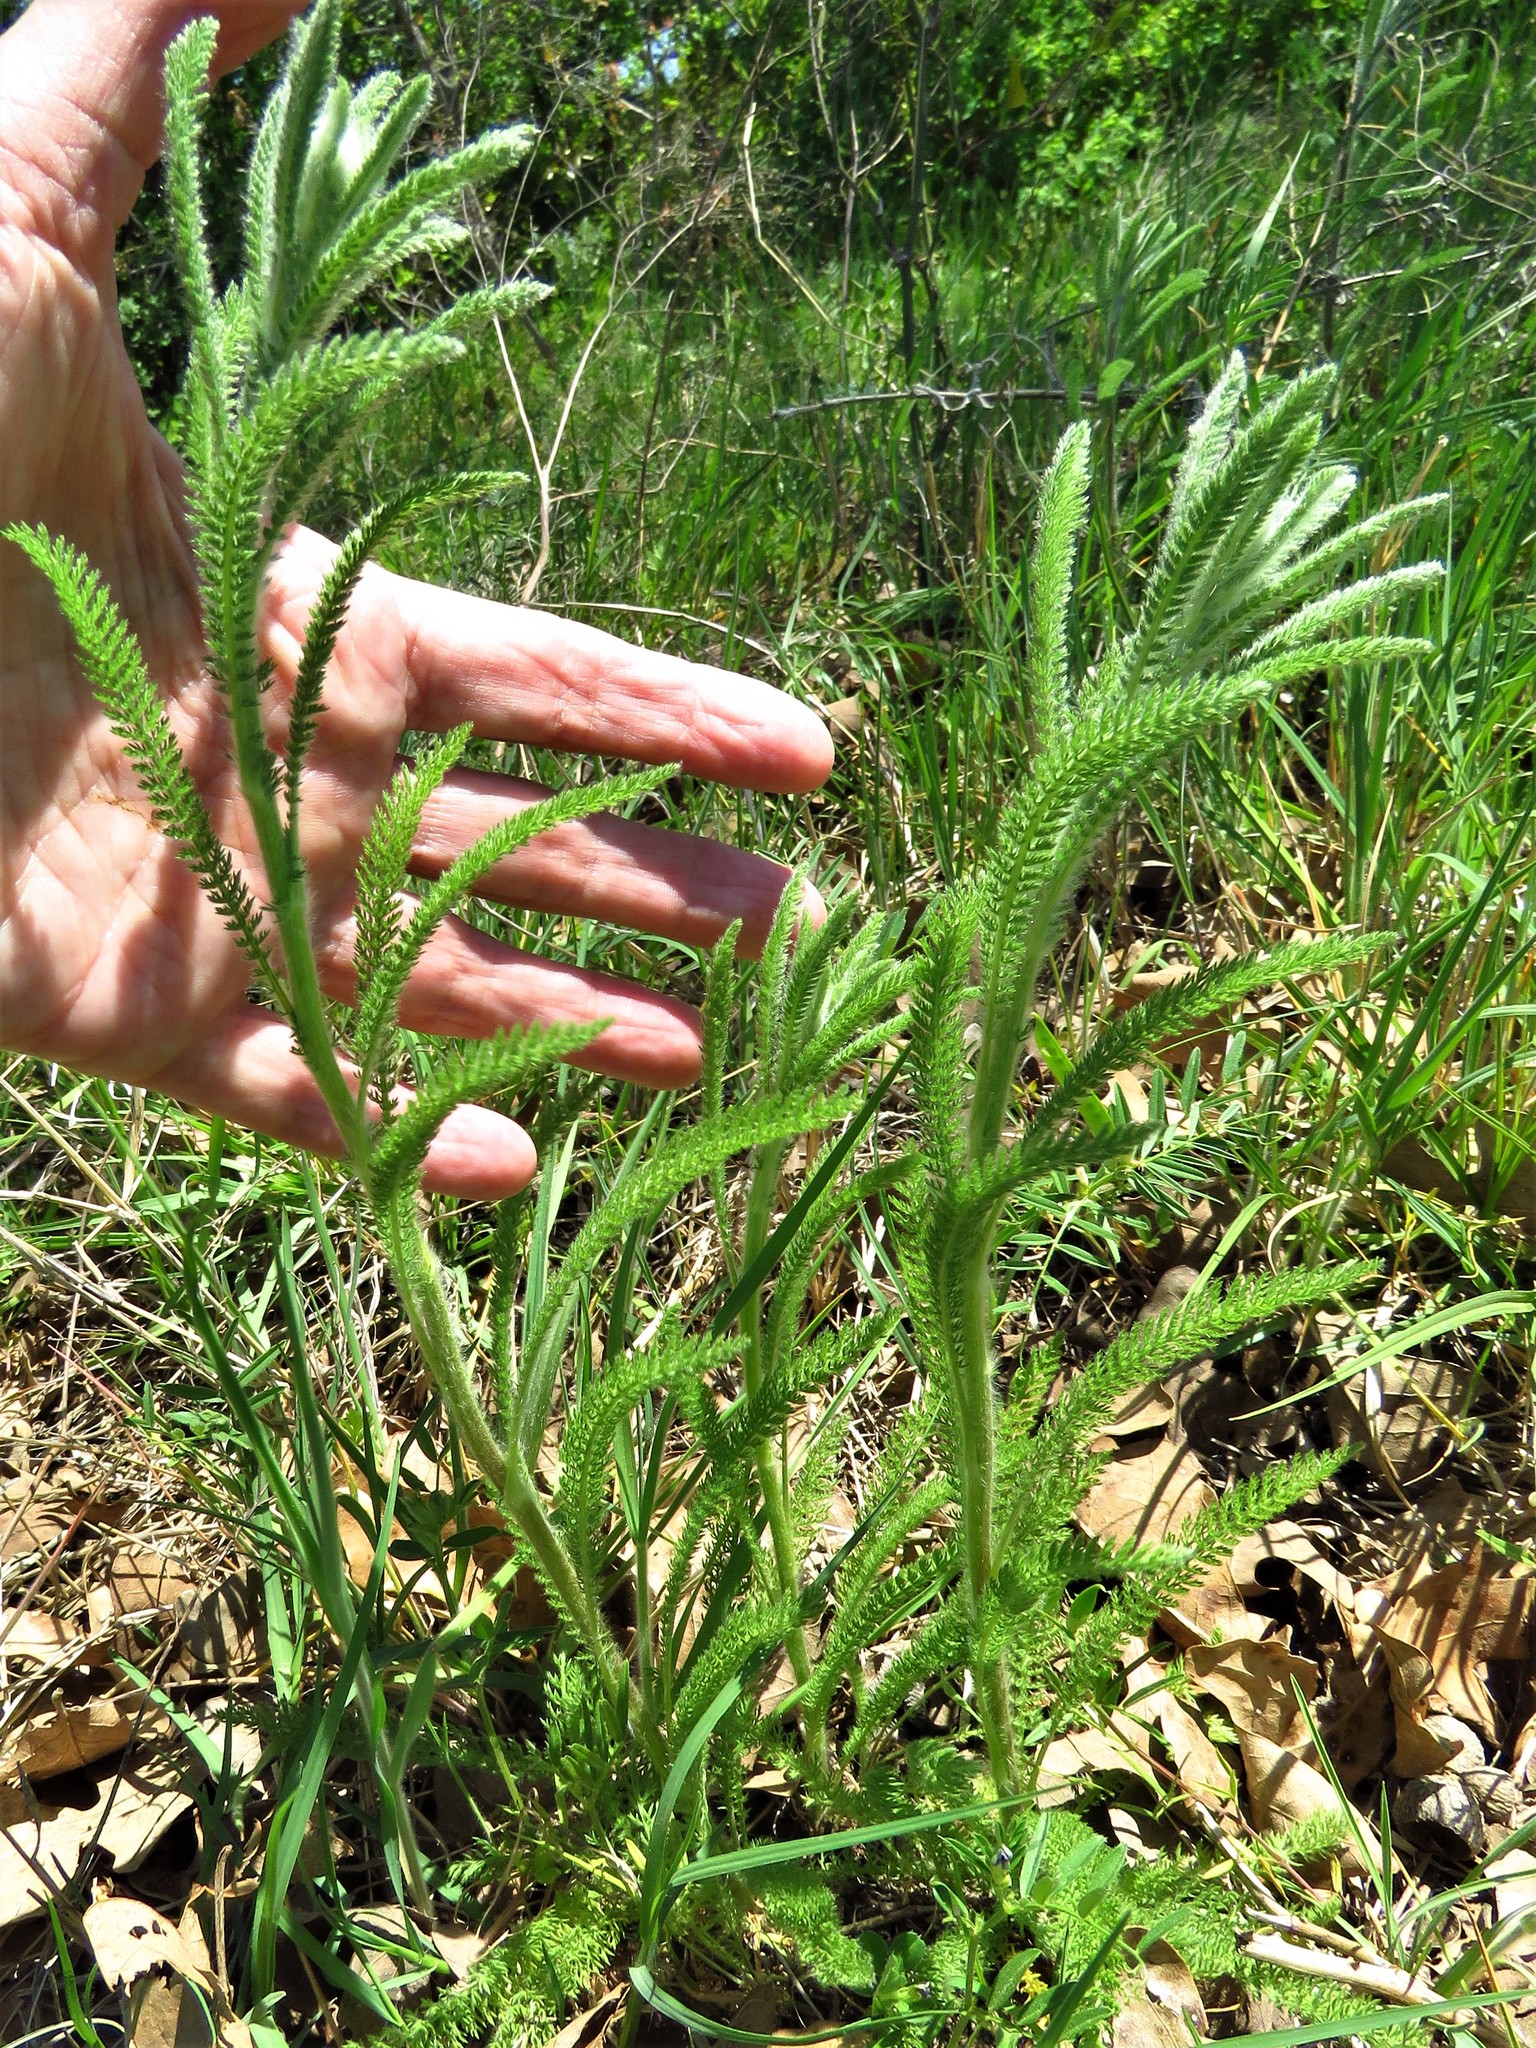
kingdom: Plantae
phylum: Tracheophyta
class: Magnoliopsida
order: Asterales
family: Asteraceae
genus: Achillea
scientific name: Achillea millefolium
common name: Yarrow
